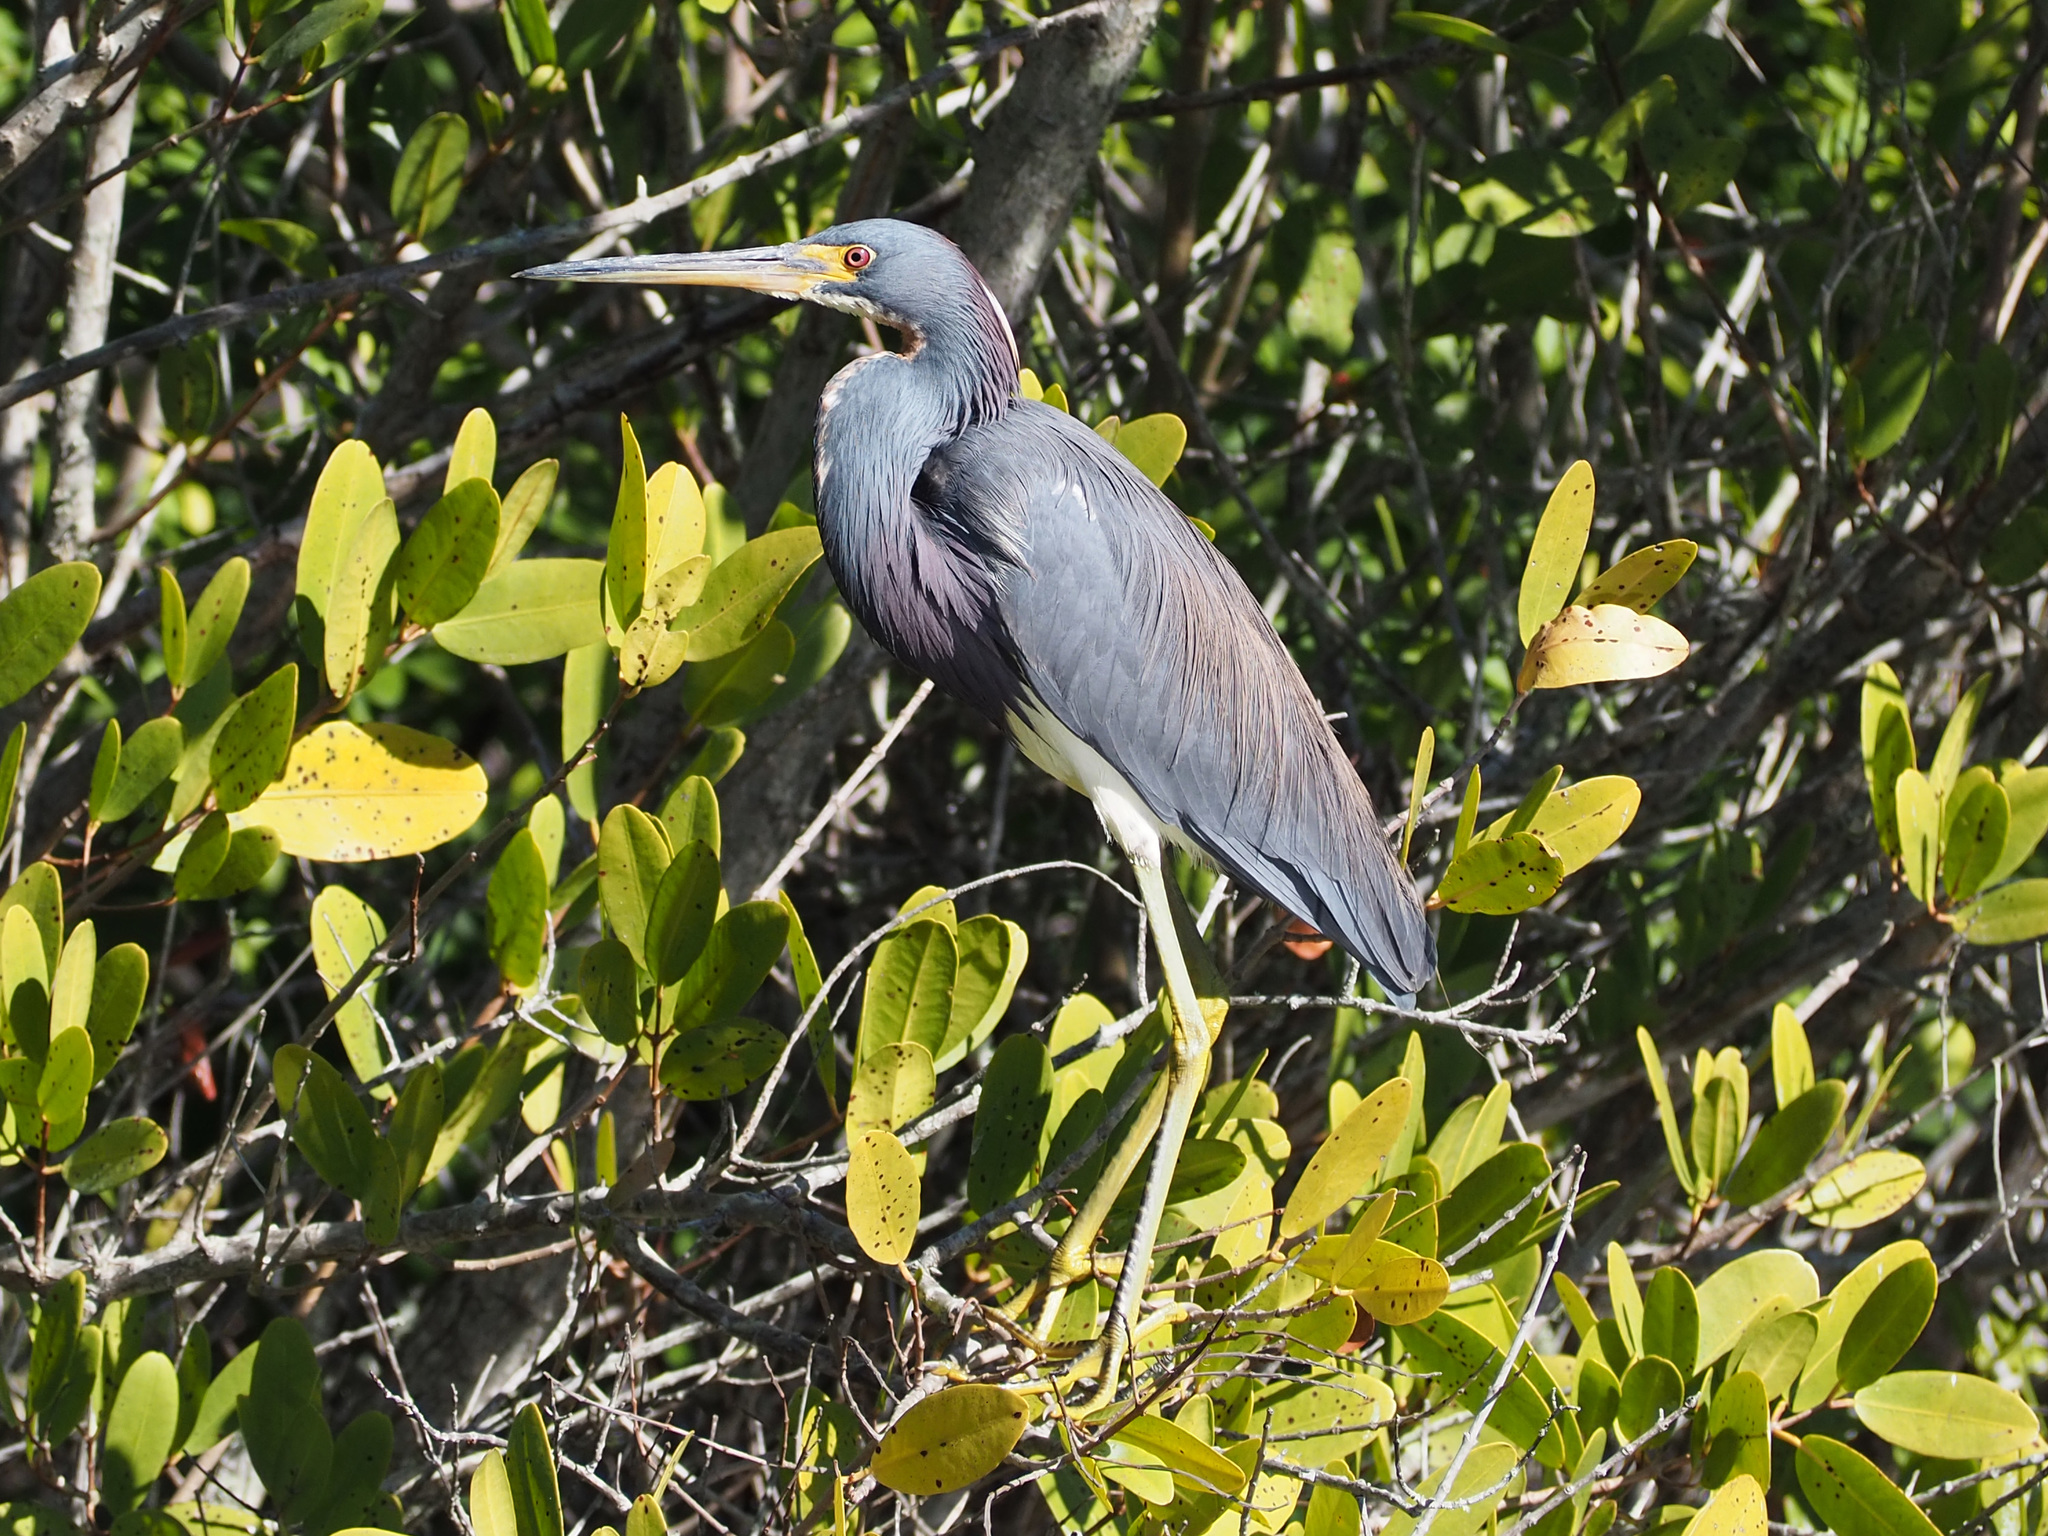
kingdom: Animalia
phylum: Chordata
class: Aves
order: Pelecaniformes
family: Ardeidae
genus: Egretta
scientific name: Egretta tricolor
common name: Tricolored heron
